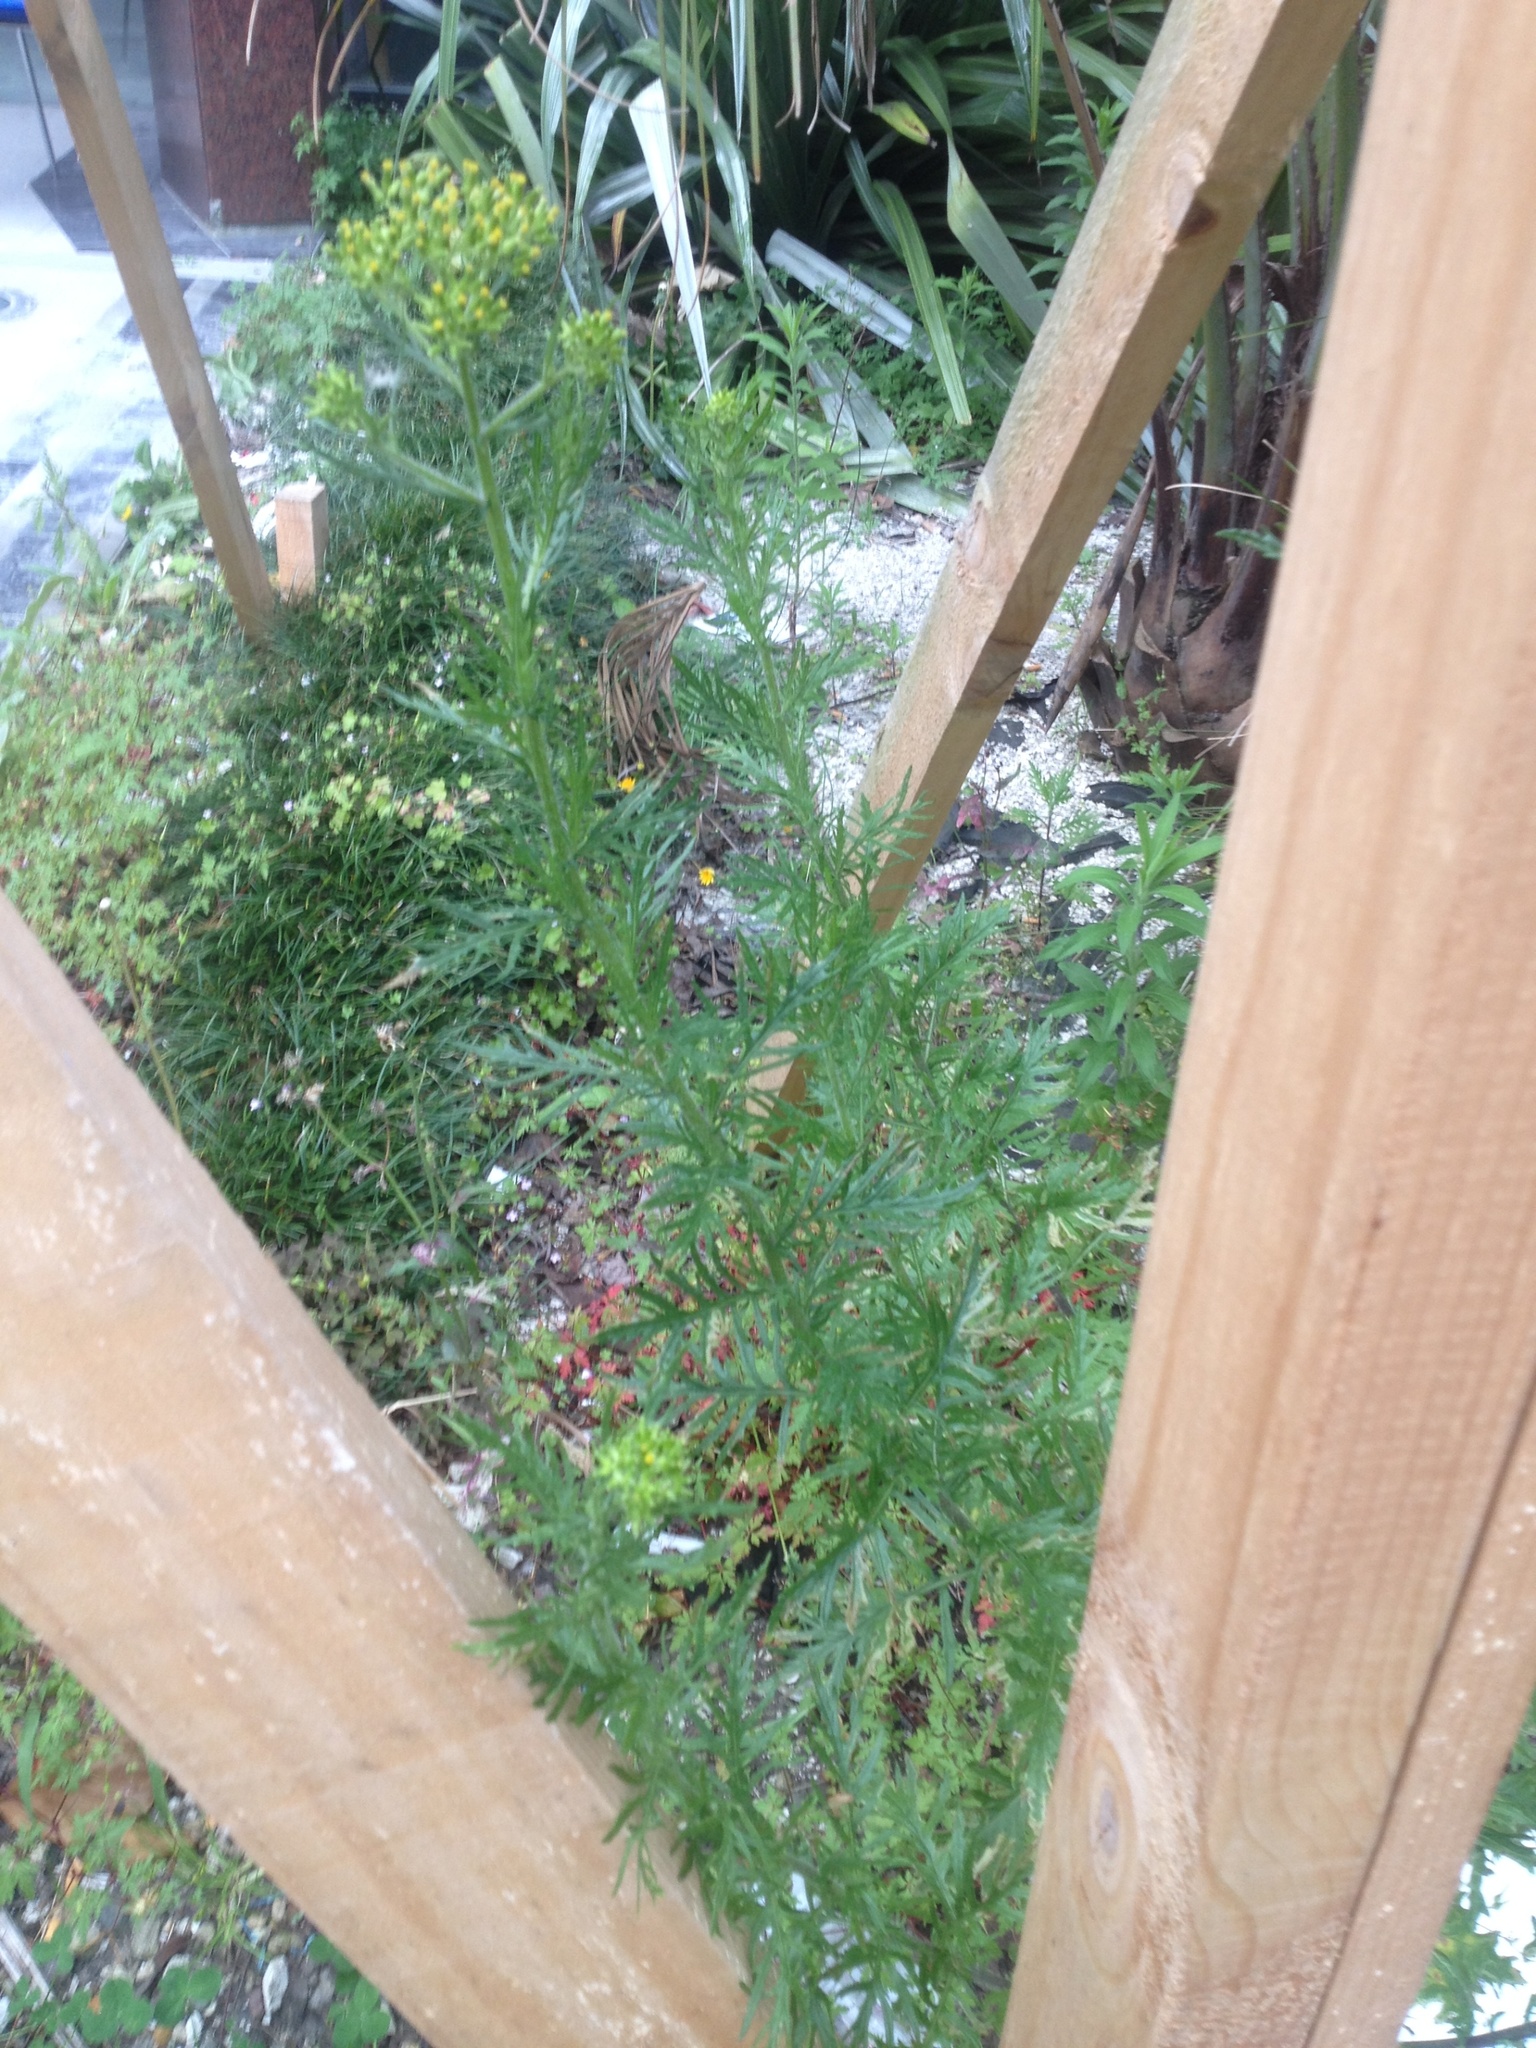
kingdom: Plantae
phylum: Tracheophyta
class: Magnoliopsida
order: Asterales
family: Asteraceae
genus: Senecio
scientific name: Senecio esleri
